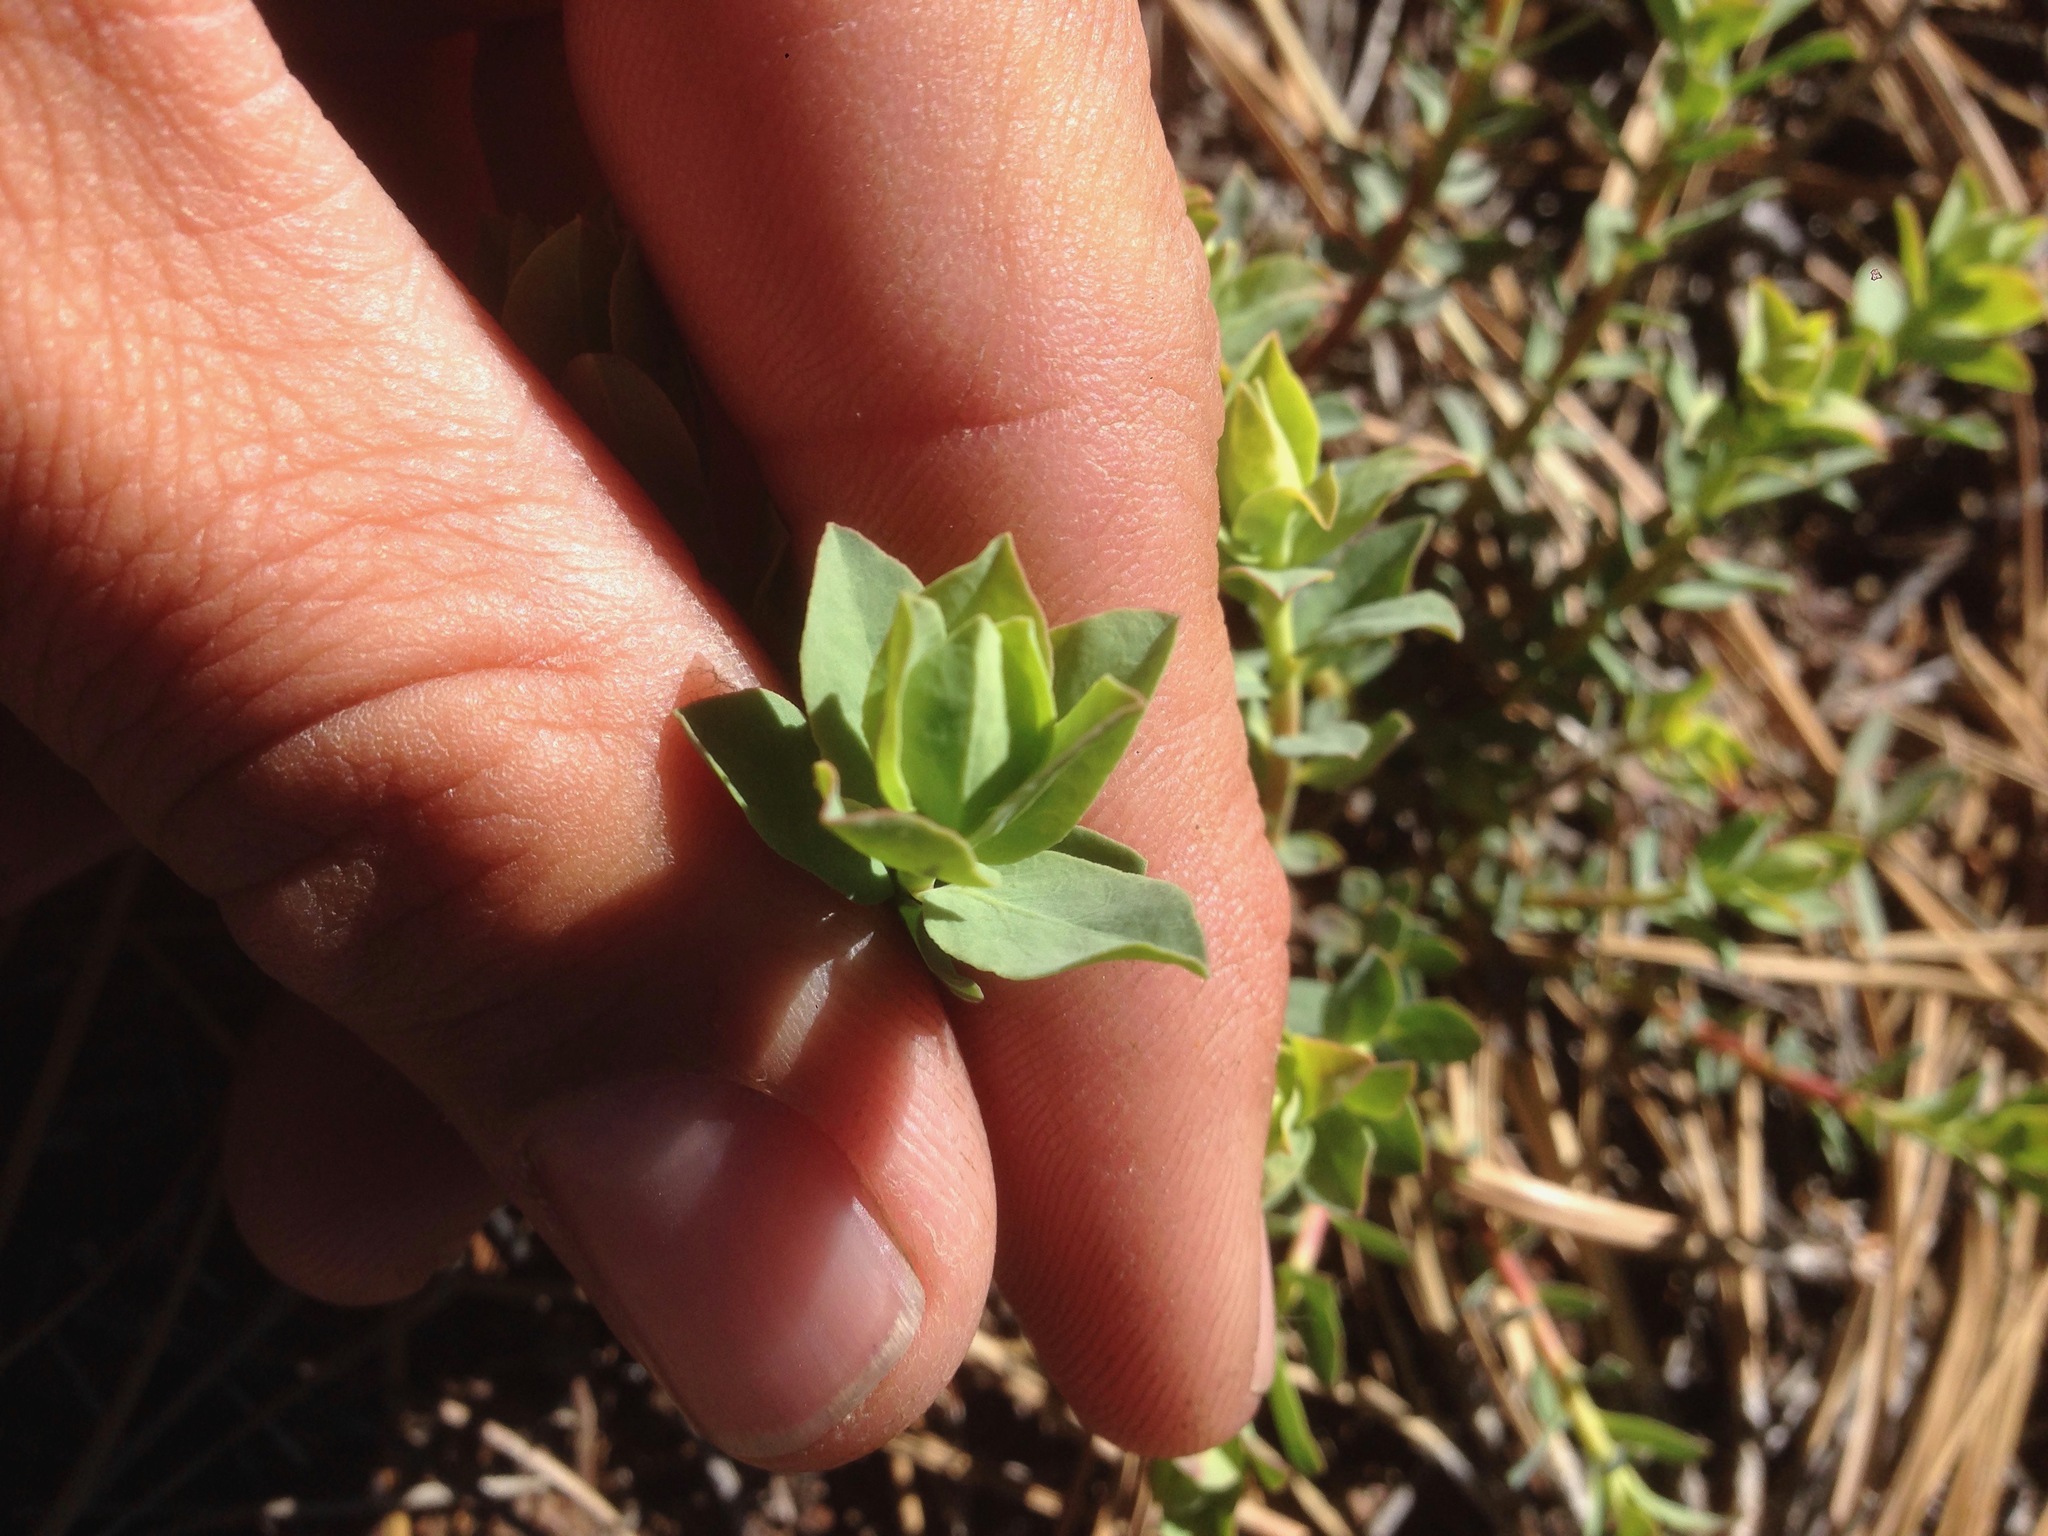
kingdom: Plantae
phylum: Tracheophyta
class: Magnoliopsida
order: Malpighiales
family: Euphorbiaceae
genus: Euphorbia
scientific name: Euphorbia lurida
